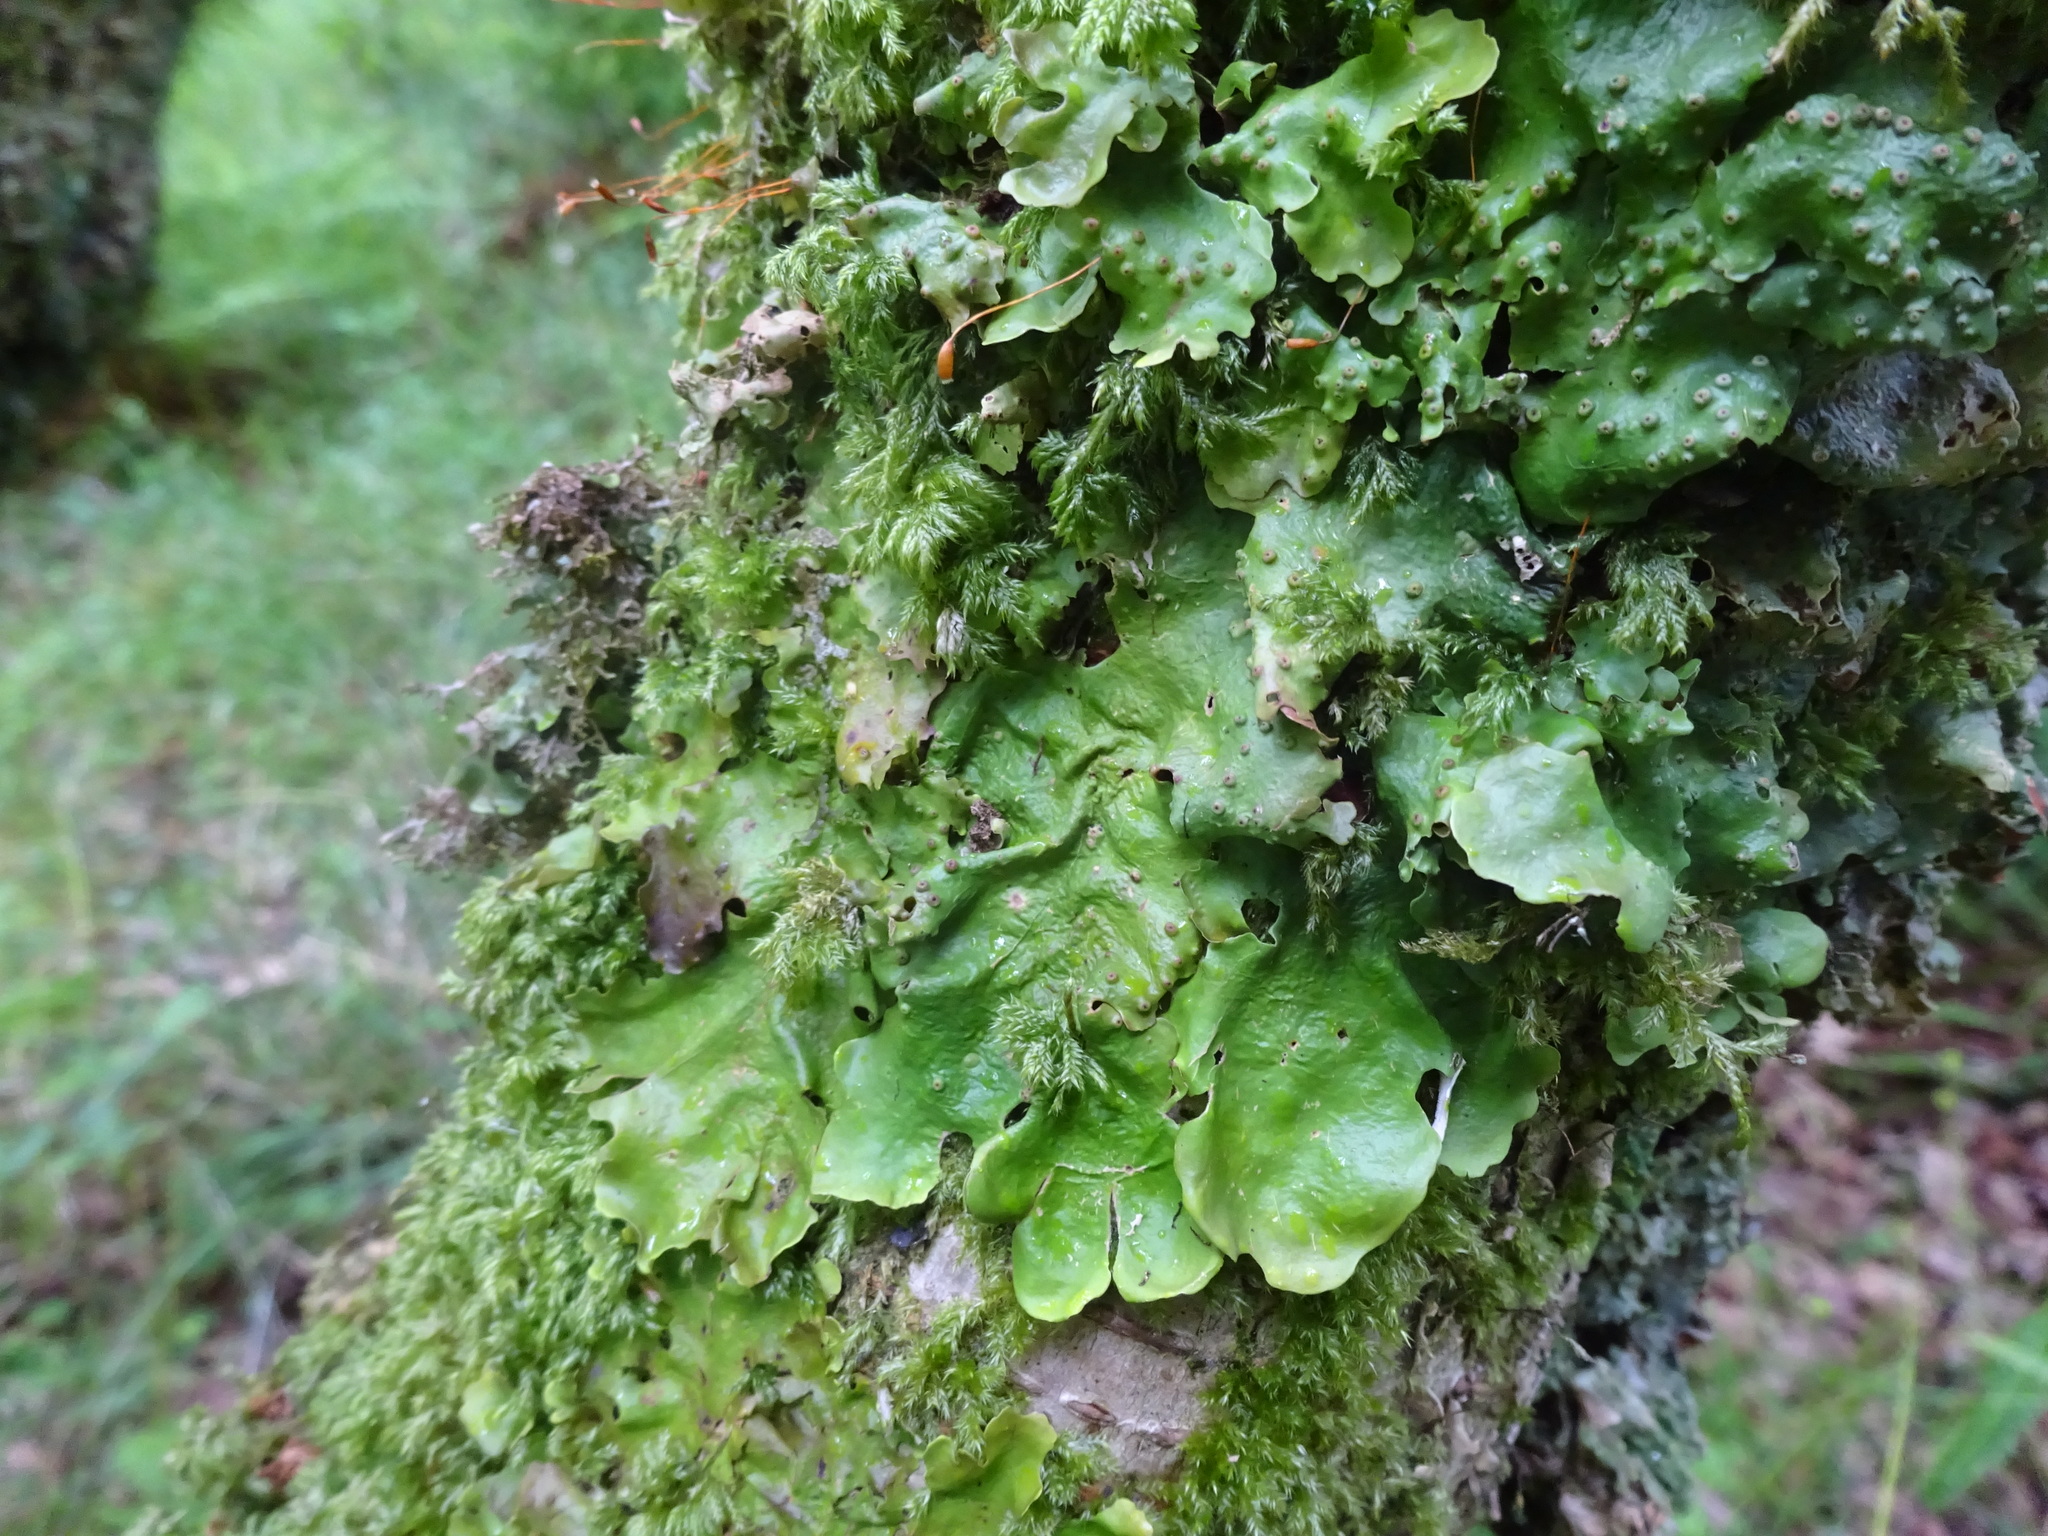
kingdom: Fungi
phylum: Ascomycota
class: Lecanoromycetes
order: Peltigerales
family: Lobariaceae
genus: Ricasolia
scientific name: Ricasolia virens
